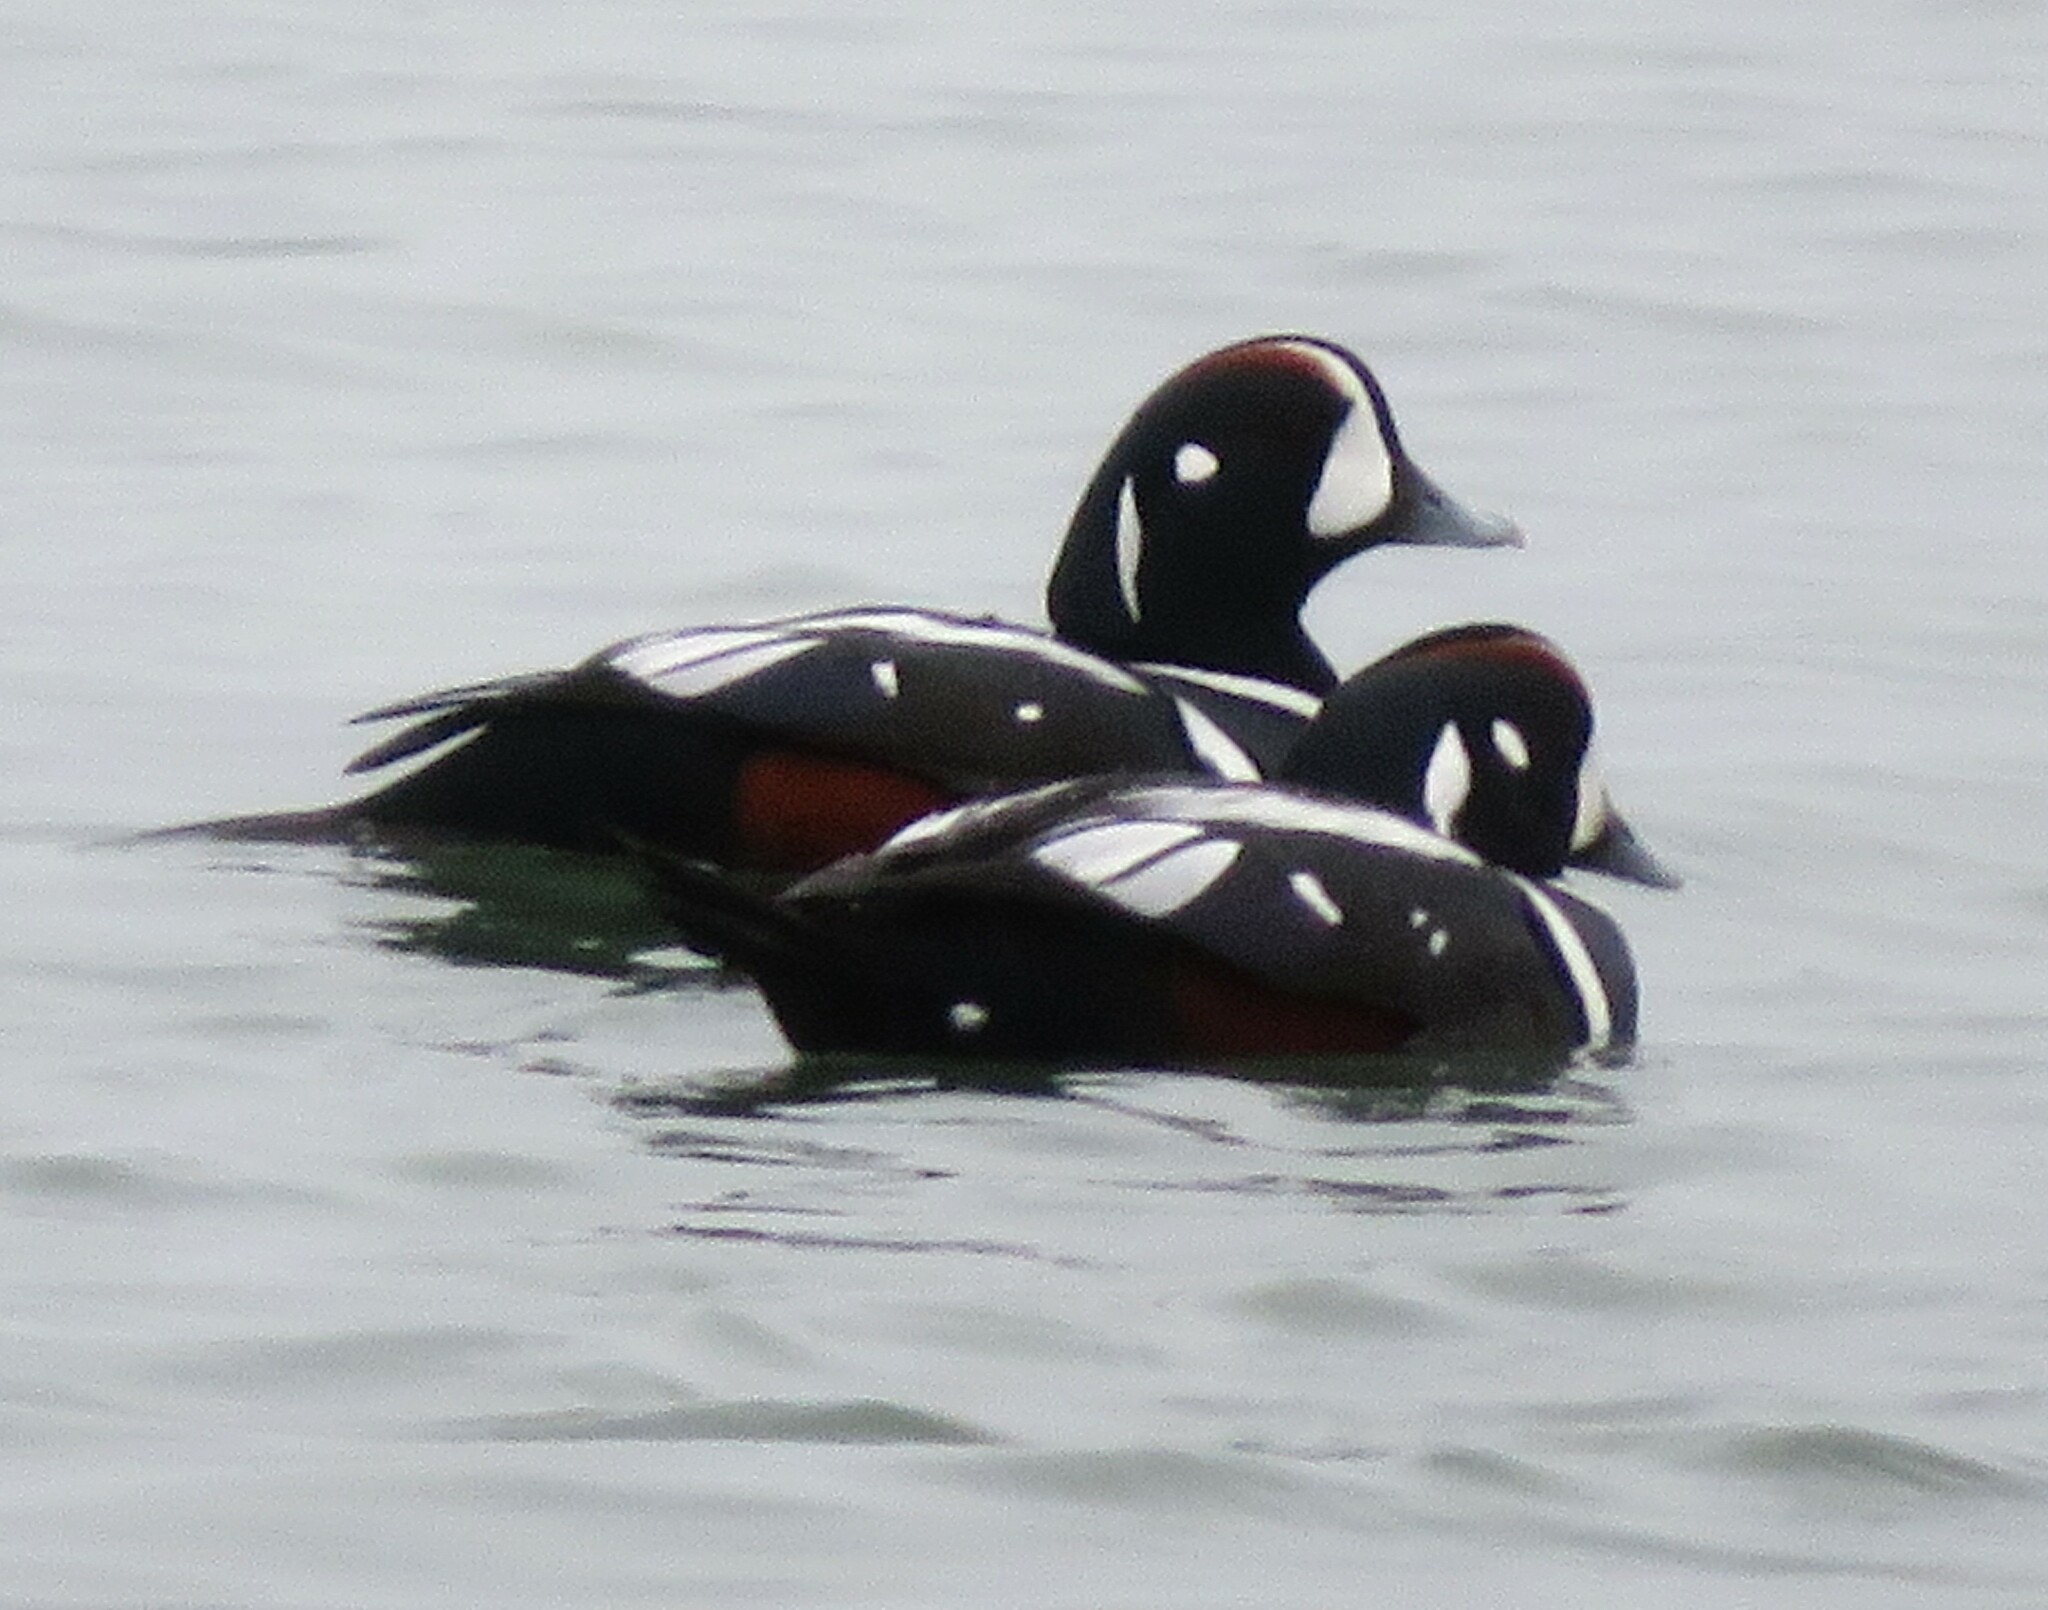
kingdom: Animalia
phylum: Chordata
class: Aves
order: Anseriformes
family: Anatidae
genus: Histrionicus
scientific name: Histrionicus histrionicus
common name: Harlequin duck
